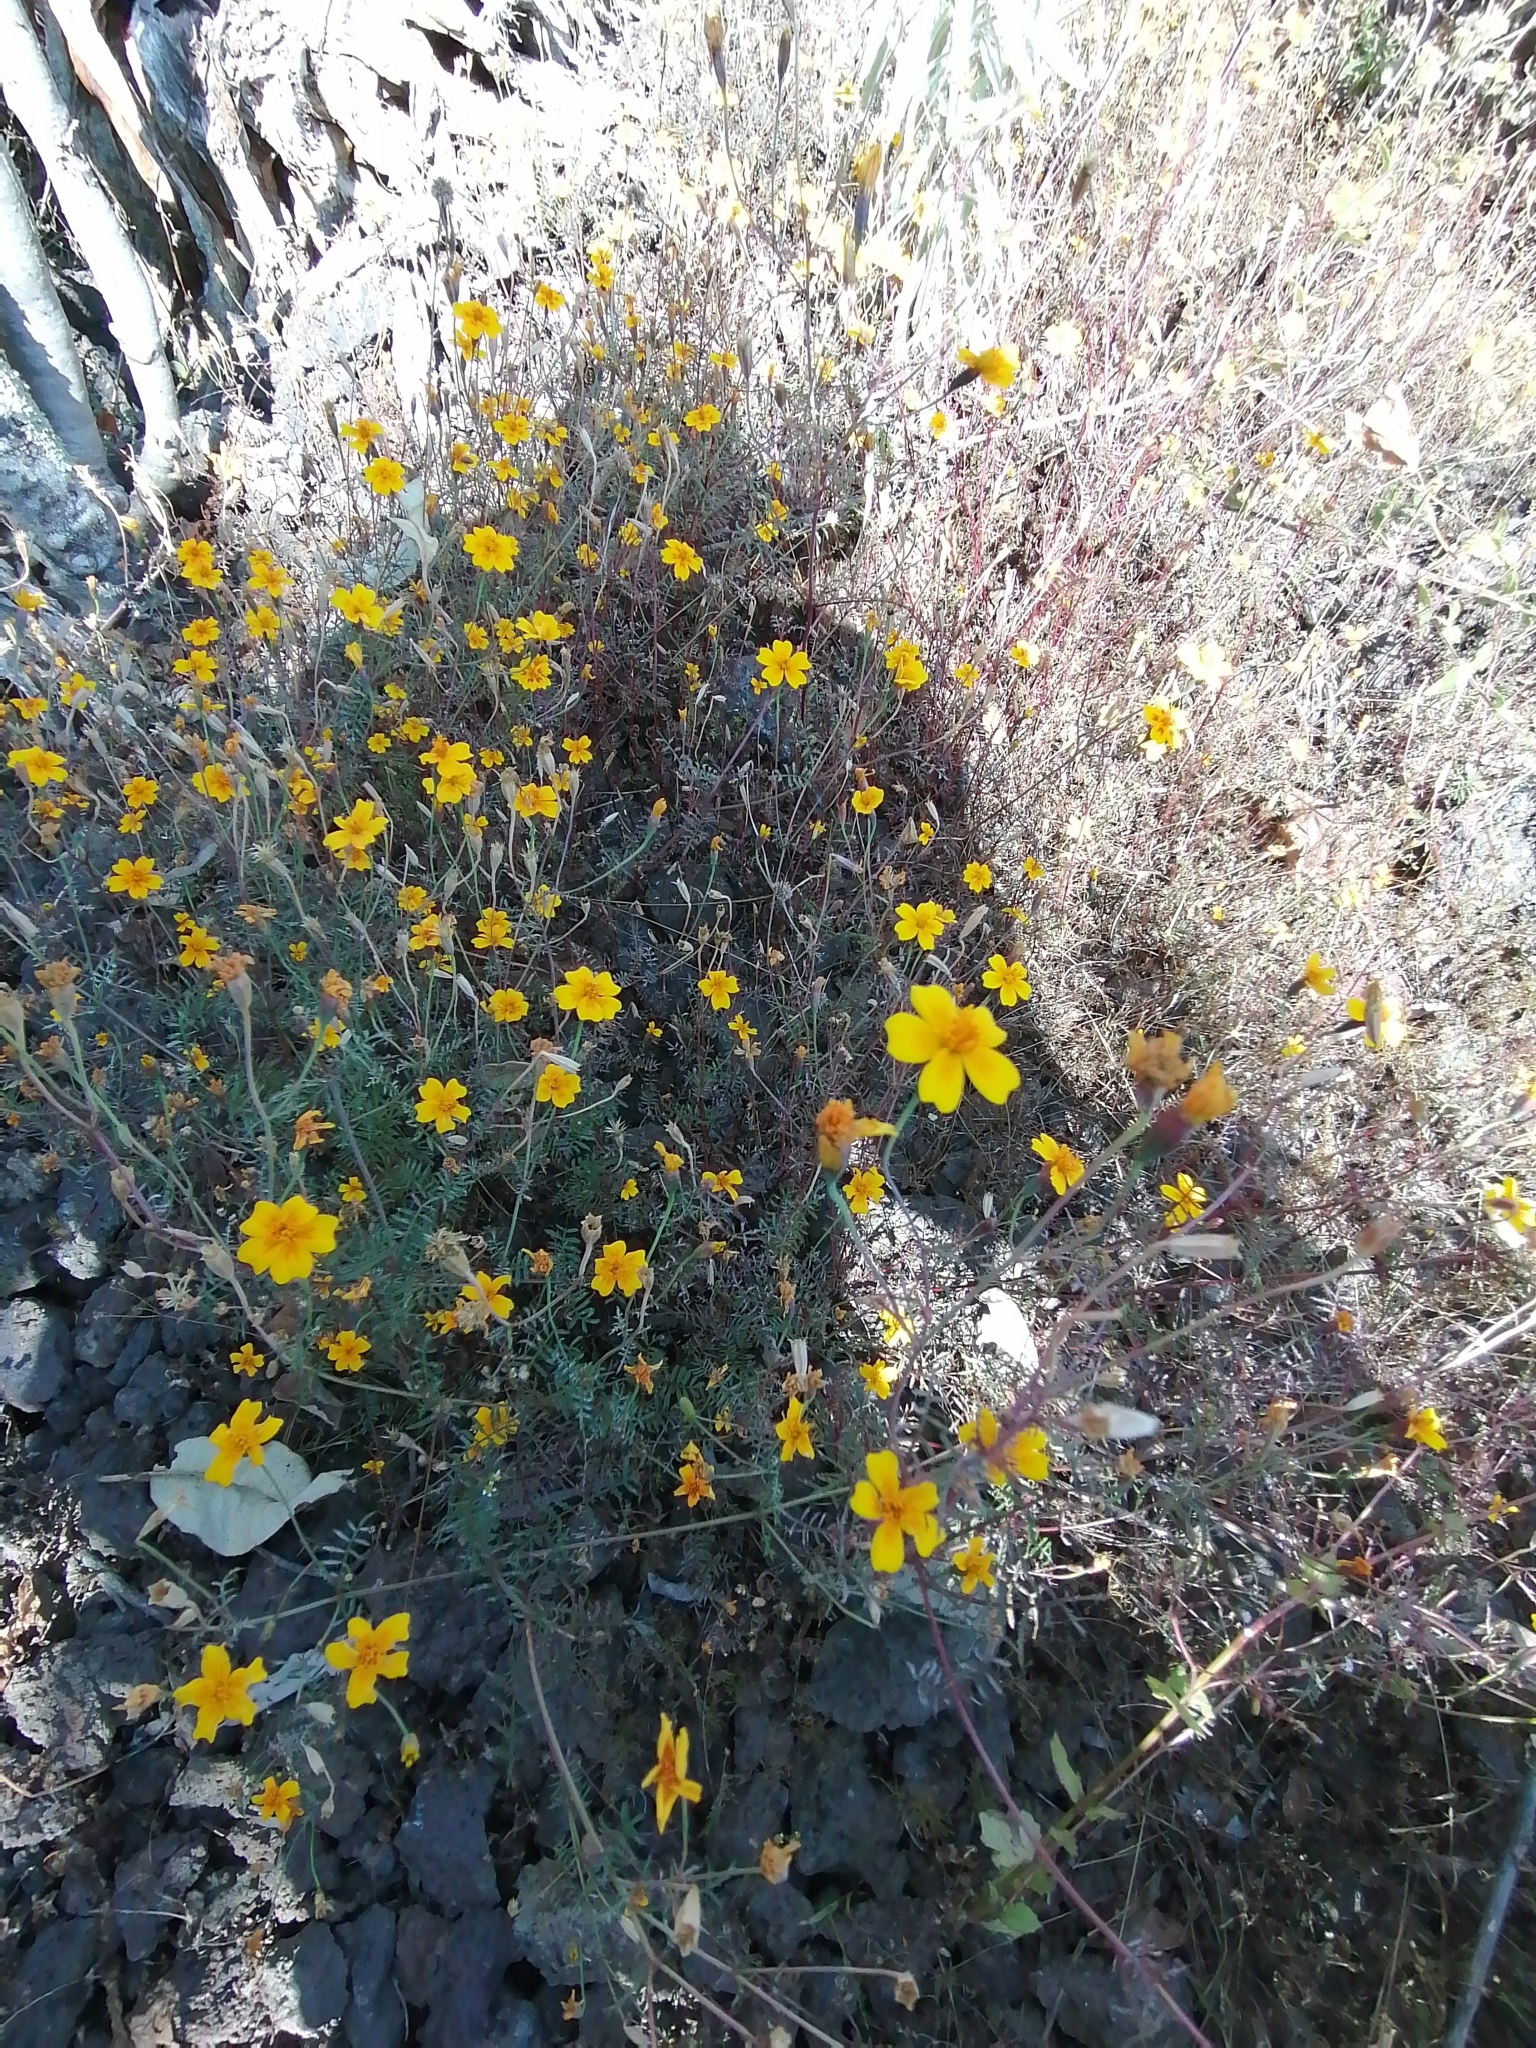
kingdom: Plantae
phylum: Tracheophyta
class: Magnoliopsida
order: Asterales
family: Asteraceae
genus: Tagetes
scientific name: Tagetes lunulata
